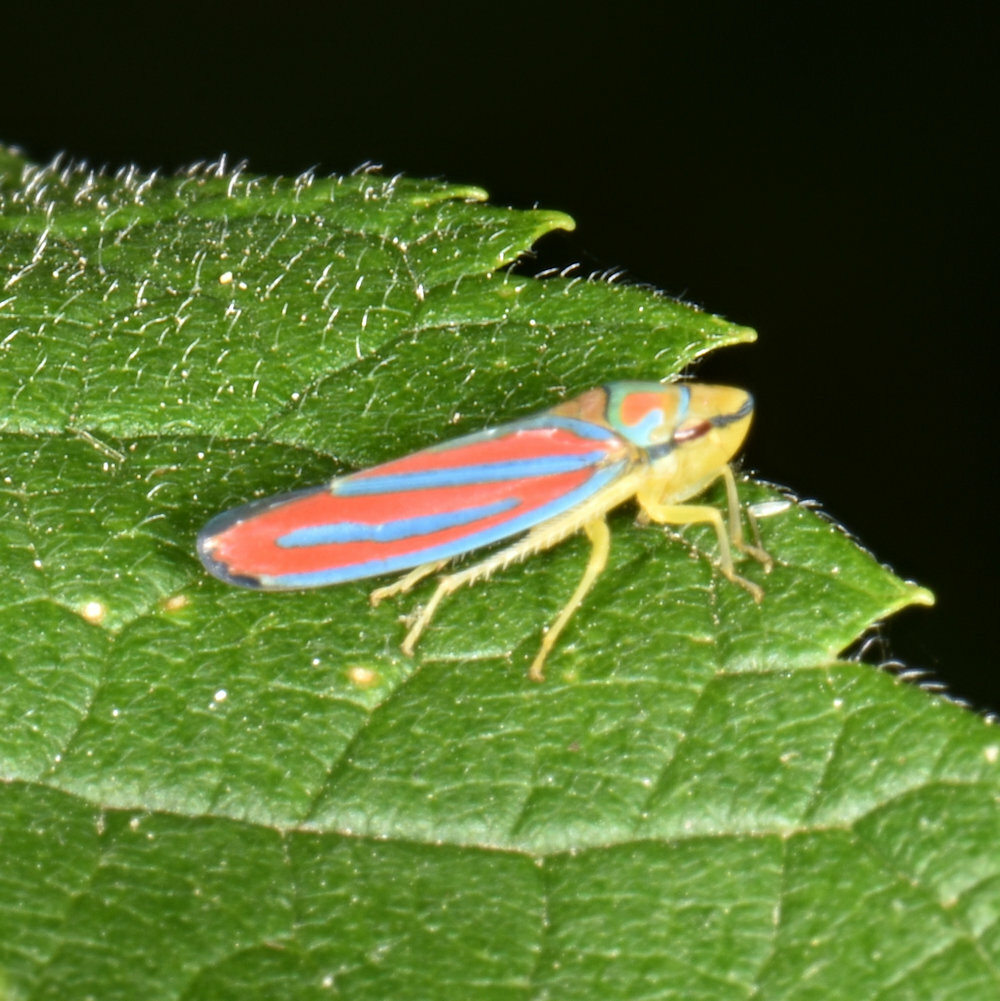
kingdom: Animalia
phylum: Arthropoda
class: Insecta
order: Hemiptera
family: Cicadellidae
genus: Graphocephala
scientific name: Graphocephala coccinea
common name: Candy-striped leafhopper
